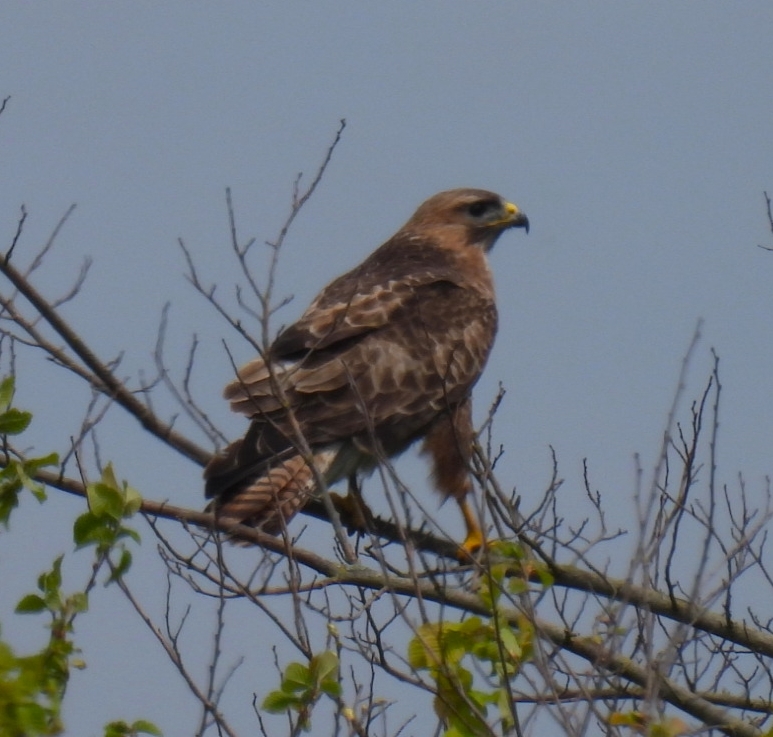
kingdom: Animalia
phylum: Chordata
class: Aves
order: Accipitriformes
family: Accipitridae
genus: Buteo
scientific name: Buteo buteo
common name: Common buzzard
